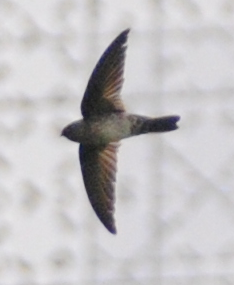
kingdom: Animalia
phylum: Chordata
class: Aves
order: Apodiformes
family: Apodidae
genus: Collocalia
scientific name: Collocalia linchi
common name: Cave swiftlet
